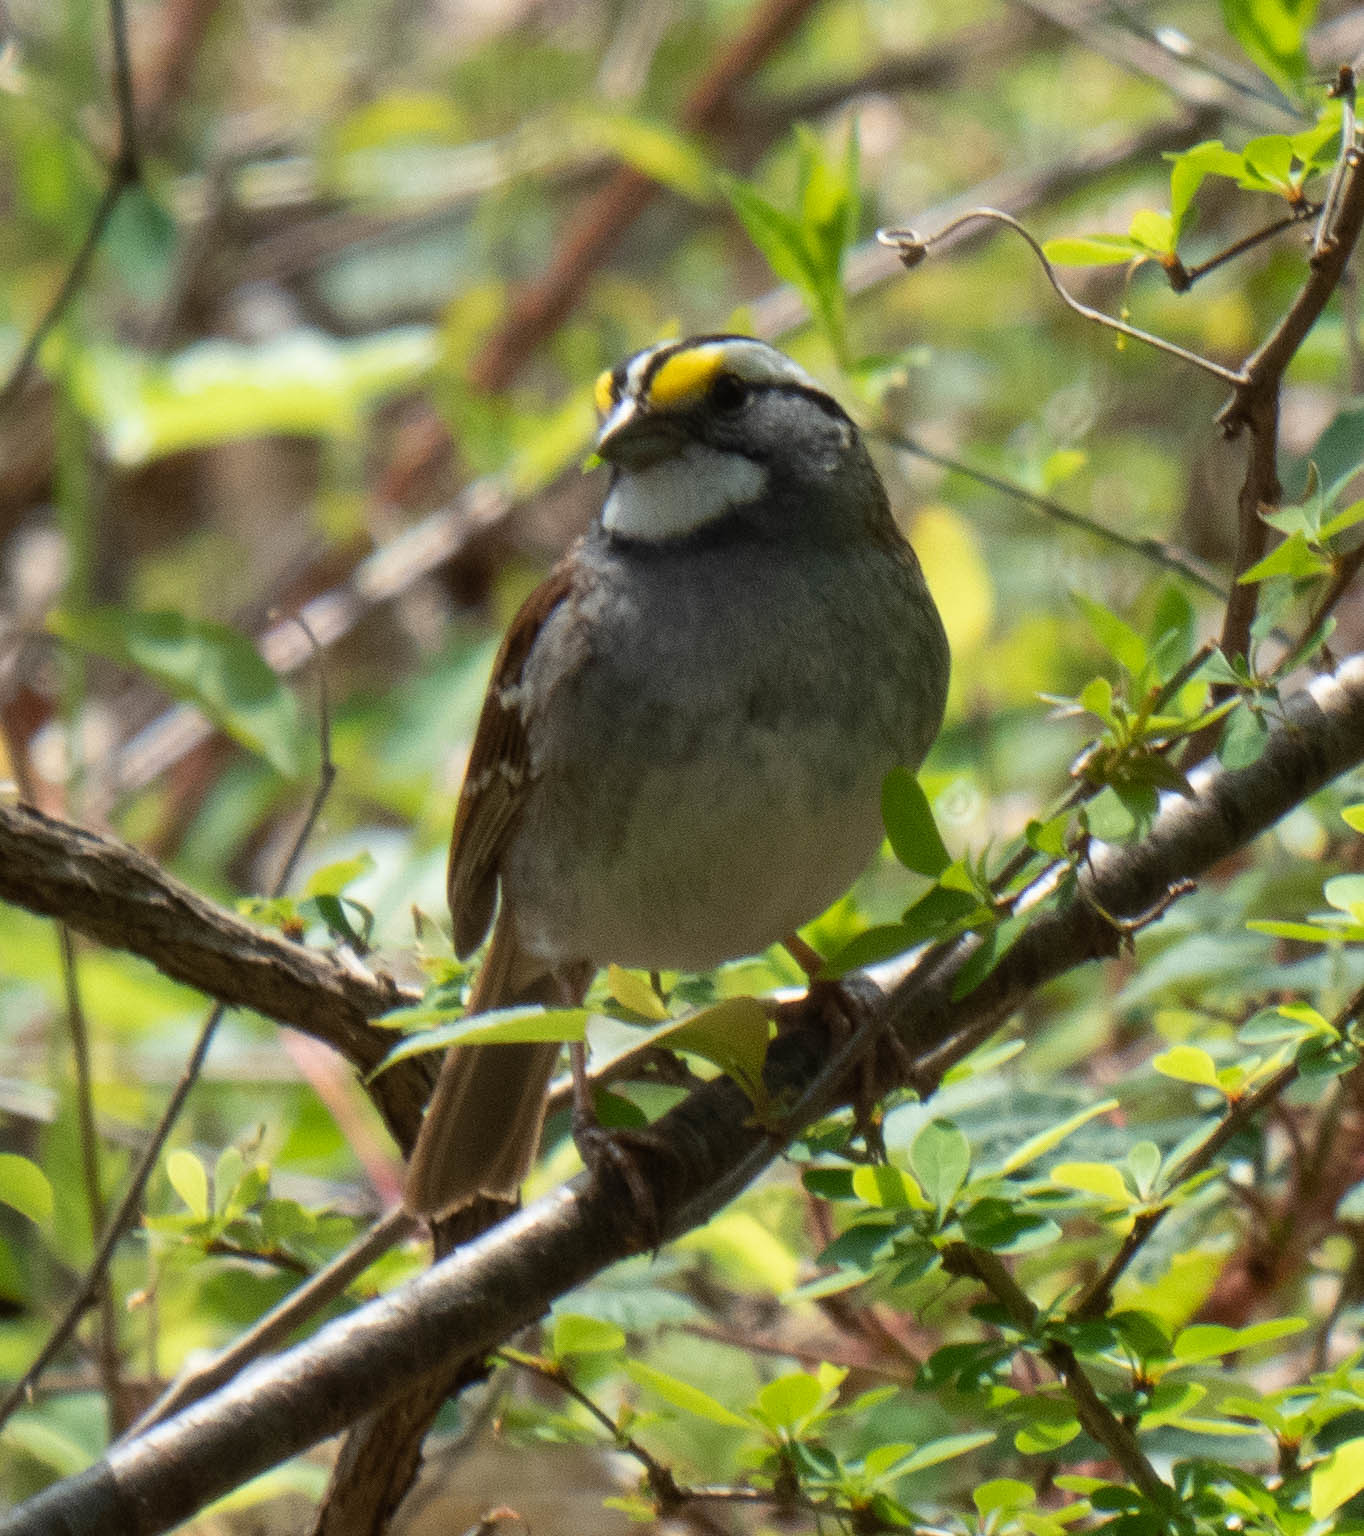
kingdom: Animalia
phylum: Chordata
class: Aves
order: Passeriformes
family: Passerellidae
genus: Zonotrichia
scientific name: Zonotrichia albicollis
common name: White-throated sparrow
